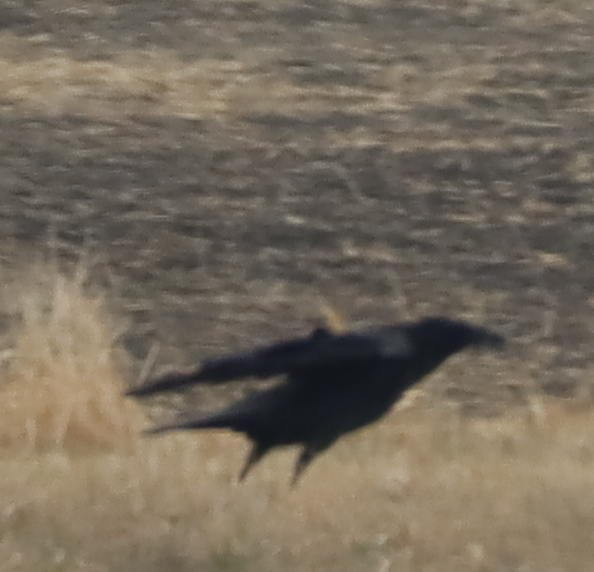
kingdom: Animalia
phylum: Chordata
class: Aves
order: Passeriformes
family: Corvidae
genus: Corvus
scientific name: Corvus corax
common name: Common raven
